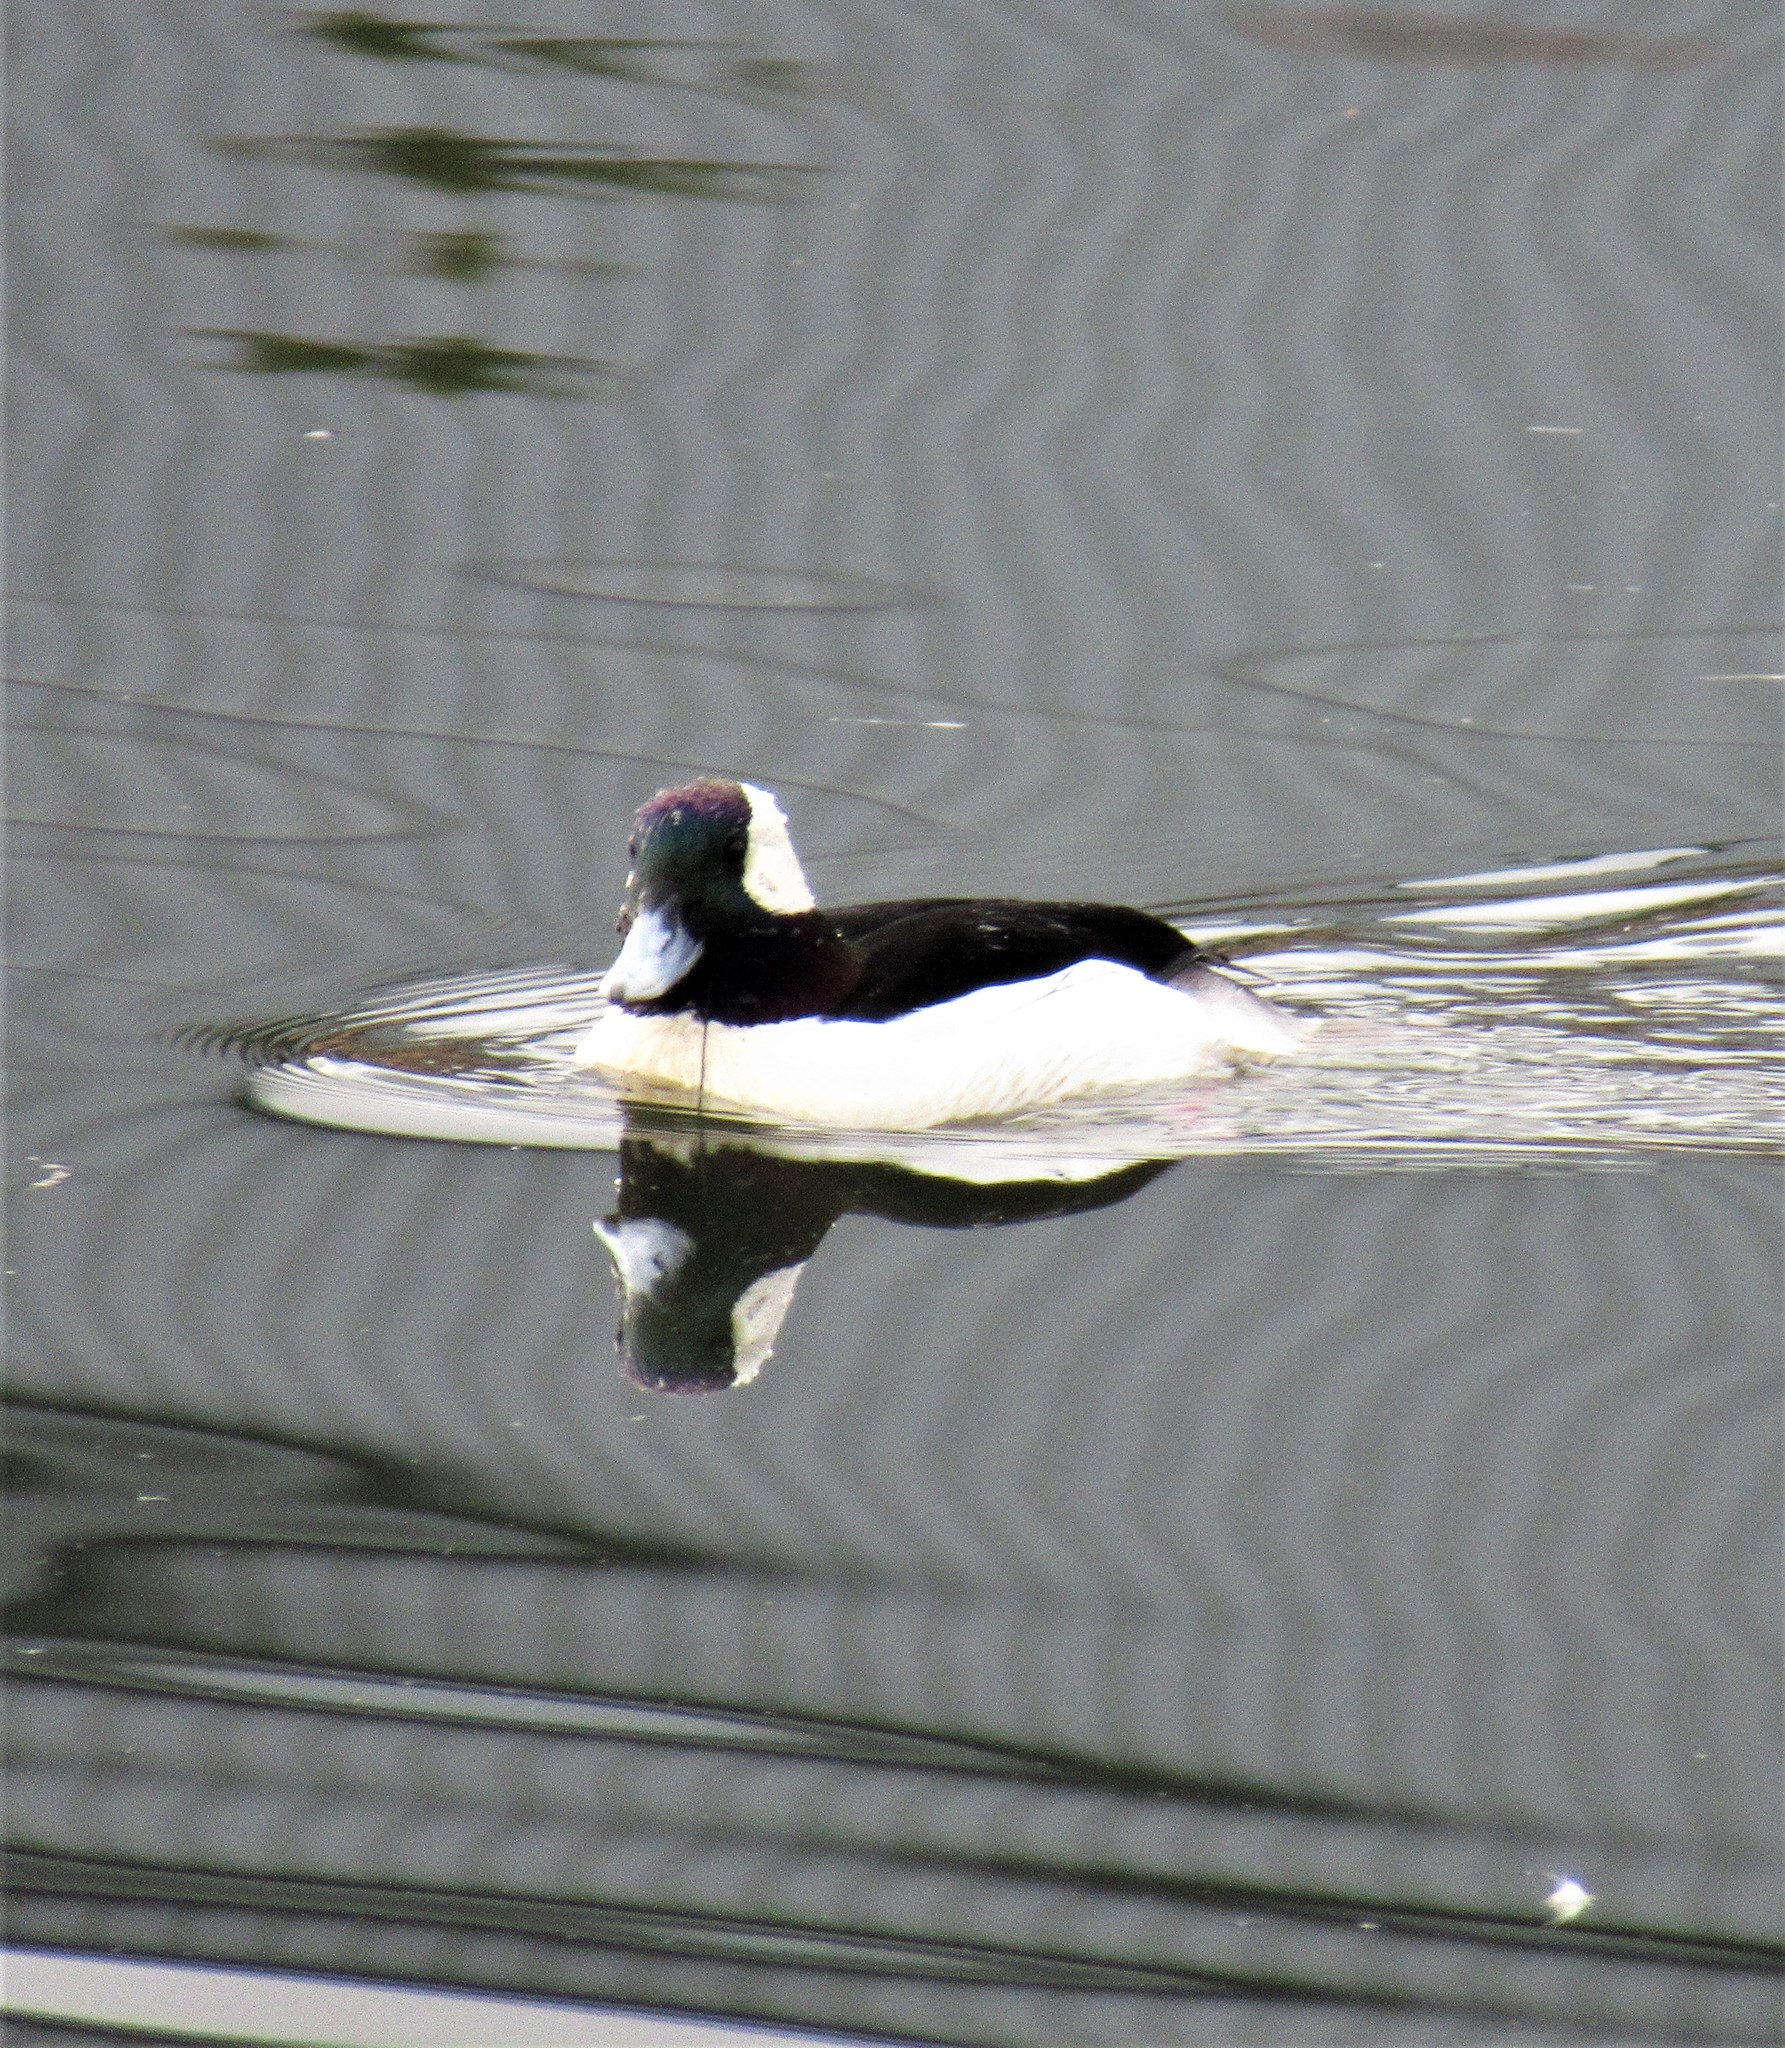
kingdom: Animalia
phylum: Chordata
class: Aves
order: Anseriformes
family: Anatidae
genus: Bucephala
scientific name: Bucephala albeola
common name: Bufflehead
